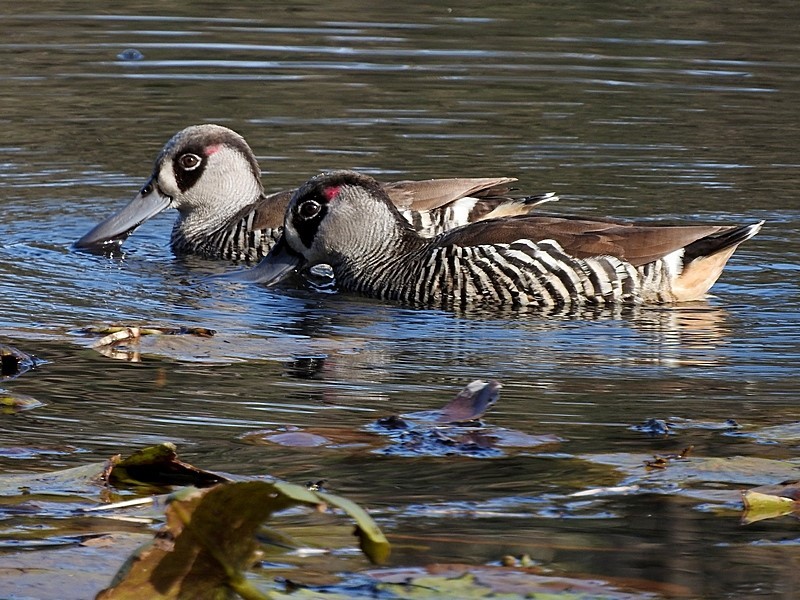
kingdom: Animalia
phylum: Chordata
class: Aves
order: Anseriformes
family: Anatidae
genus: Malacorhynchus
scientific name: Malacorhynchus membranaceus
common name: Pink-eared duck
